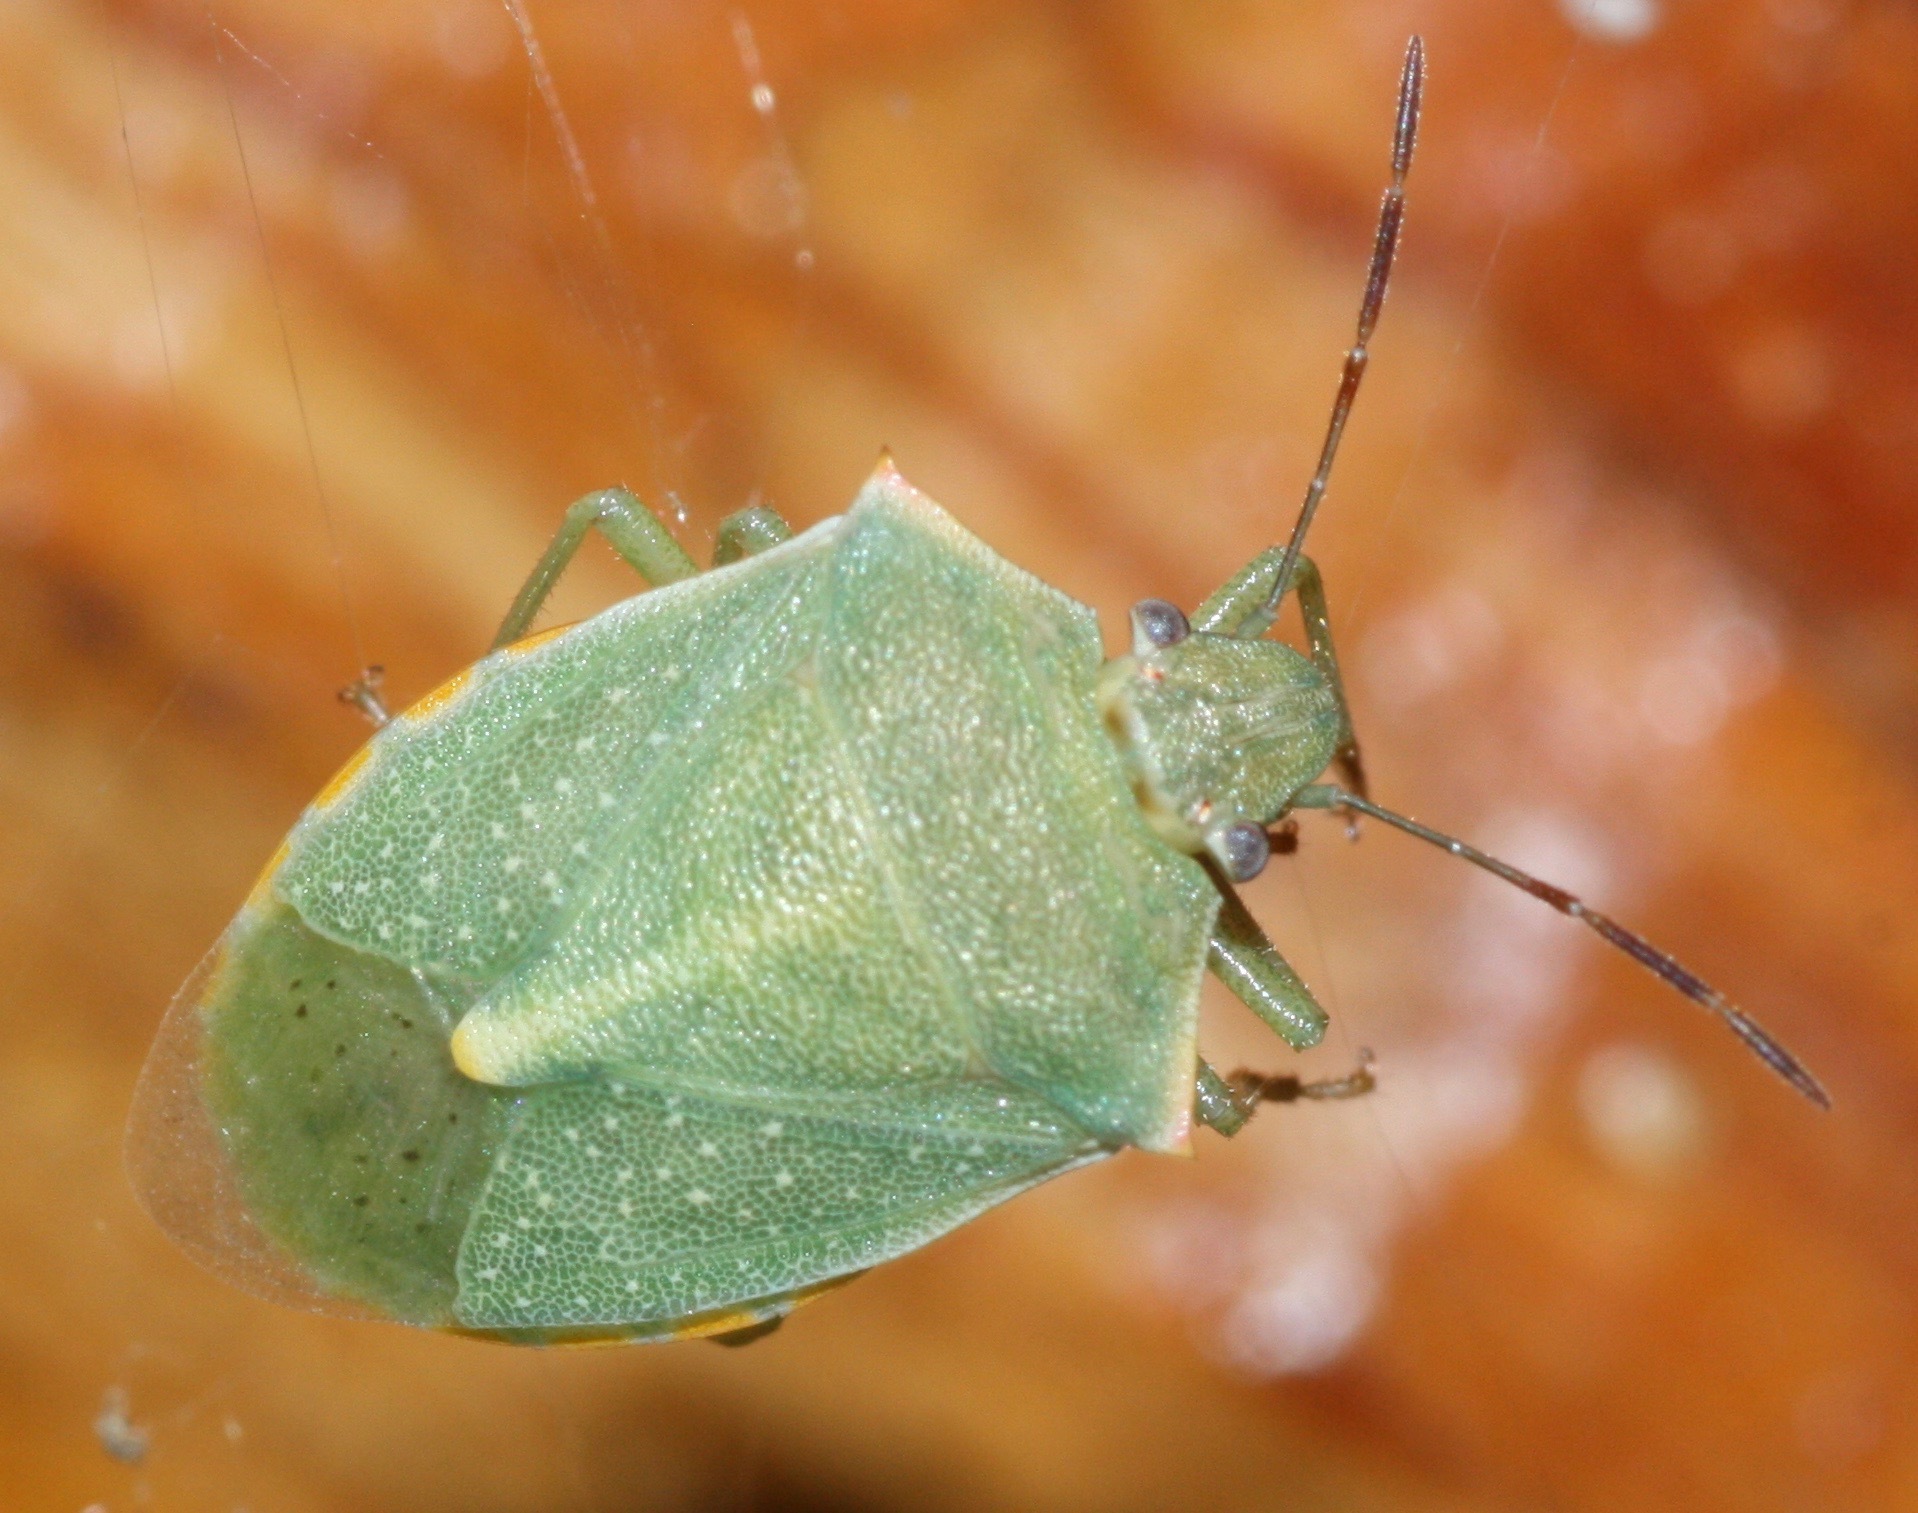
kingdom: Animalia
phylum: Arthropoda
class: Insecta
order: Hemiptera
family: Pentatomidae
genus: Thyanta
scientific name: Thyanta accerra
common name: Stink bug
